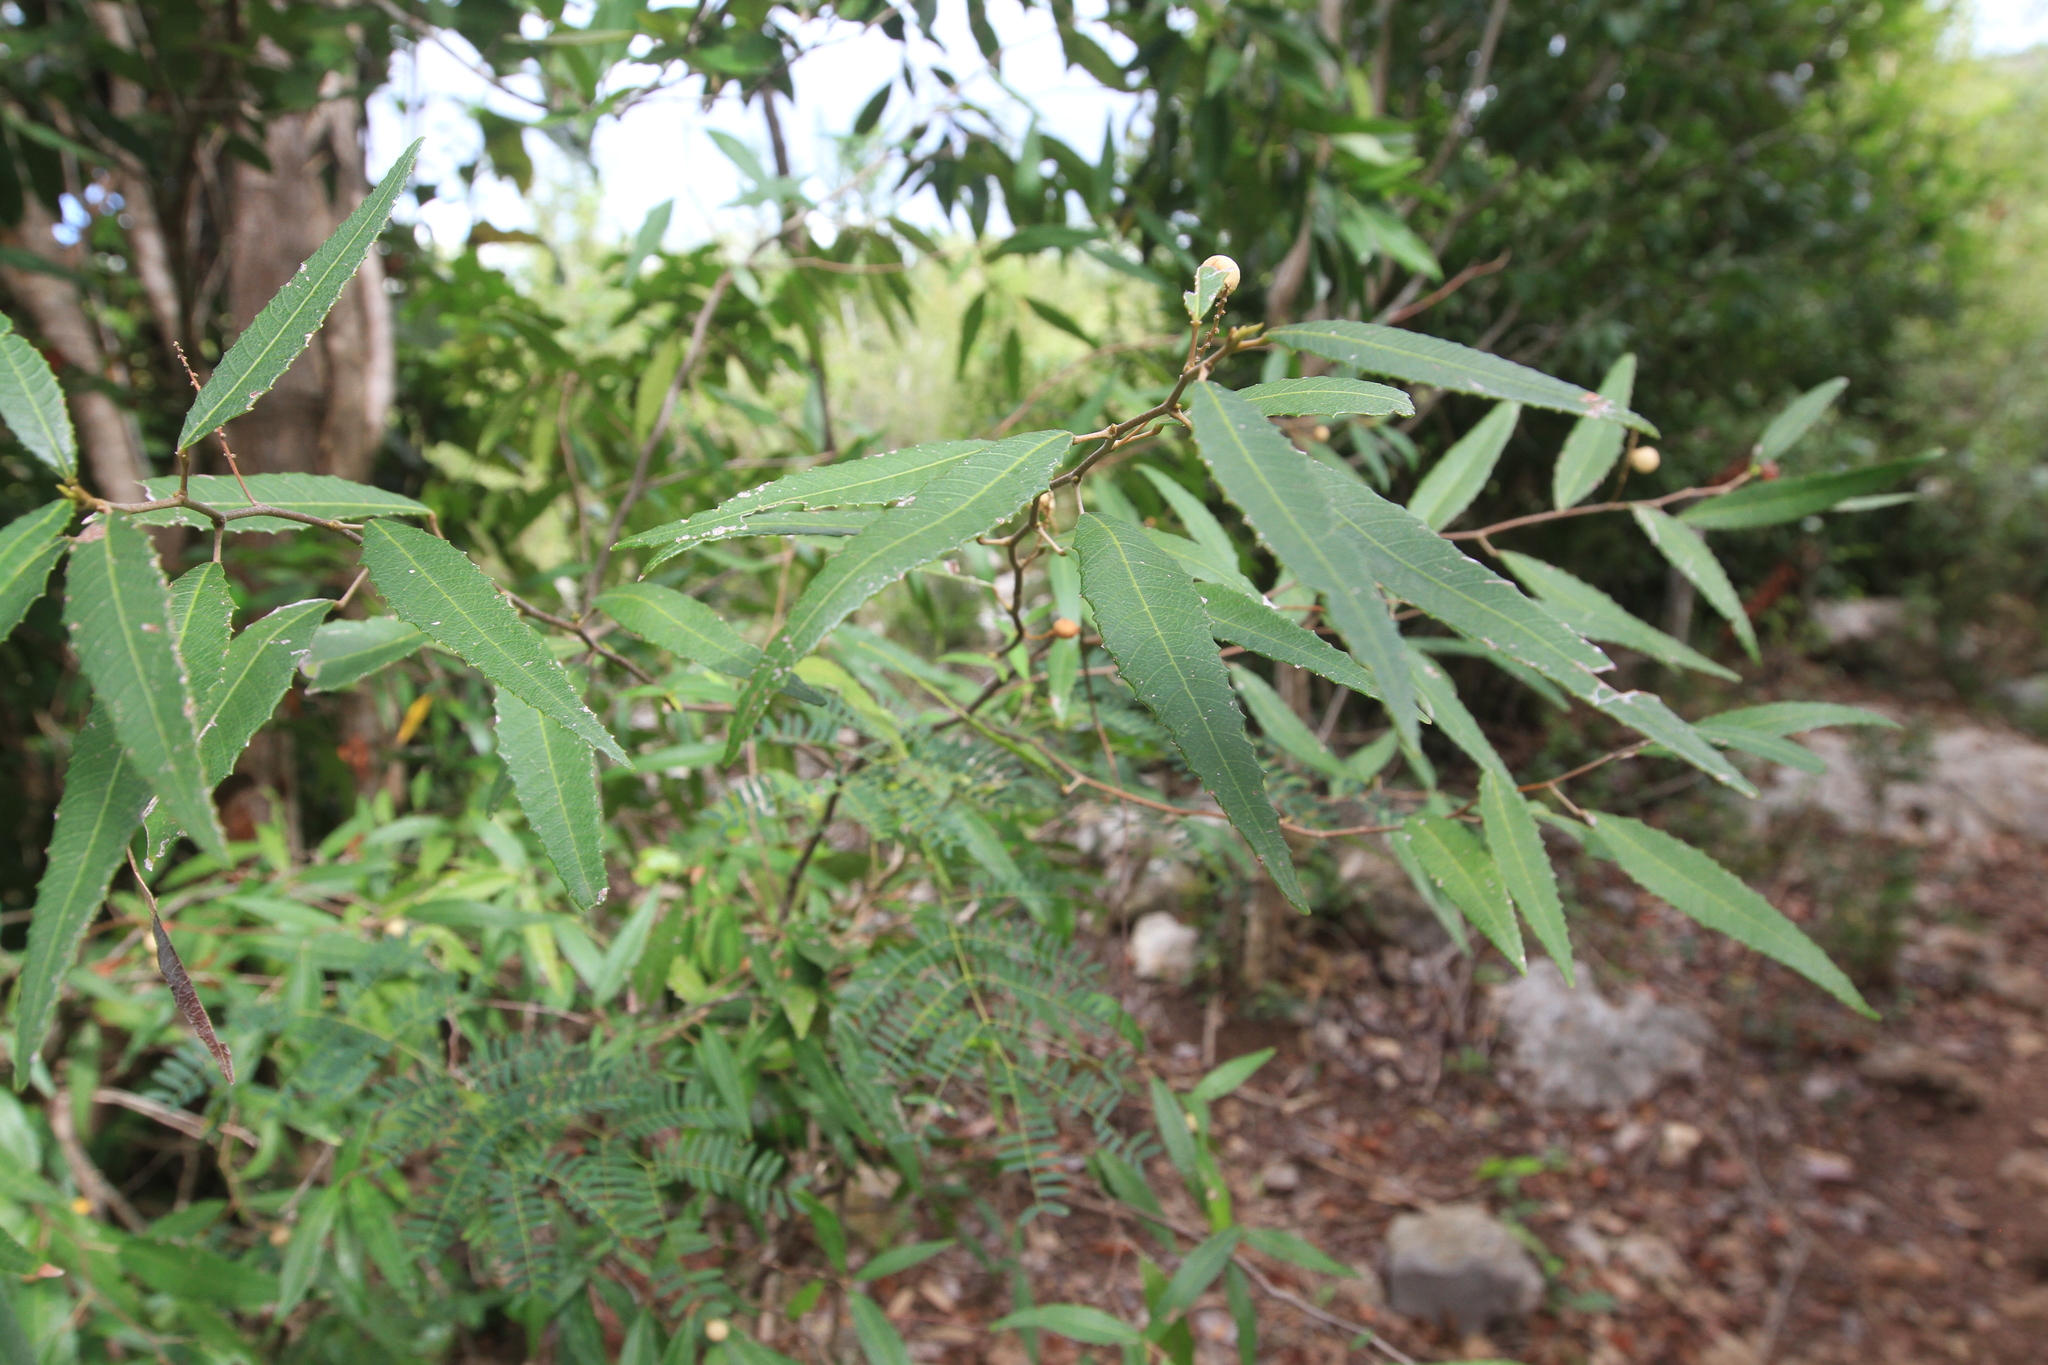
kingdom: Plantae
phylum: Tracheophyta
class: Magnoliopsida
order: Sapindales
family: Sapindaceae
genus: Allophylus
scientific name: Allophylus rigidus
